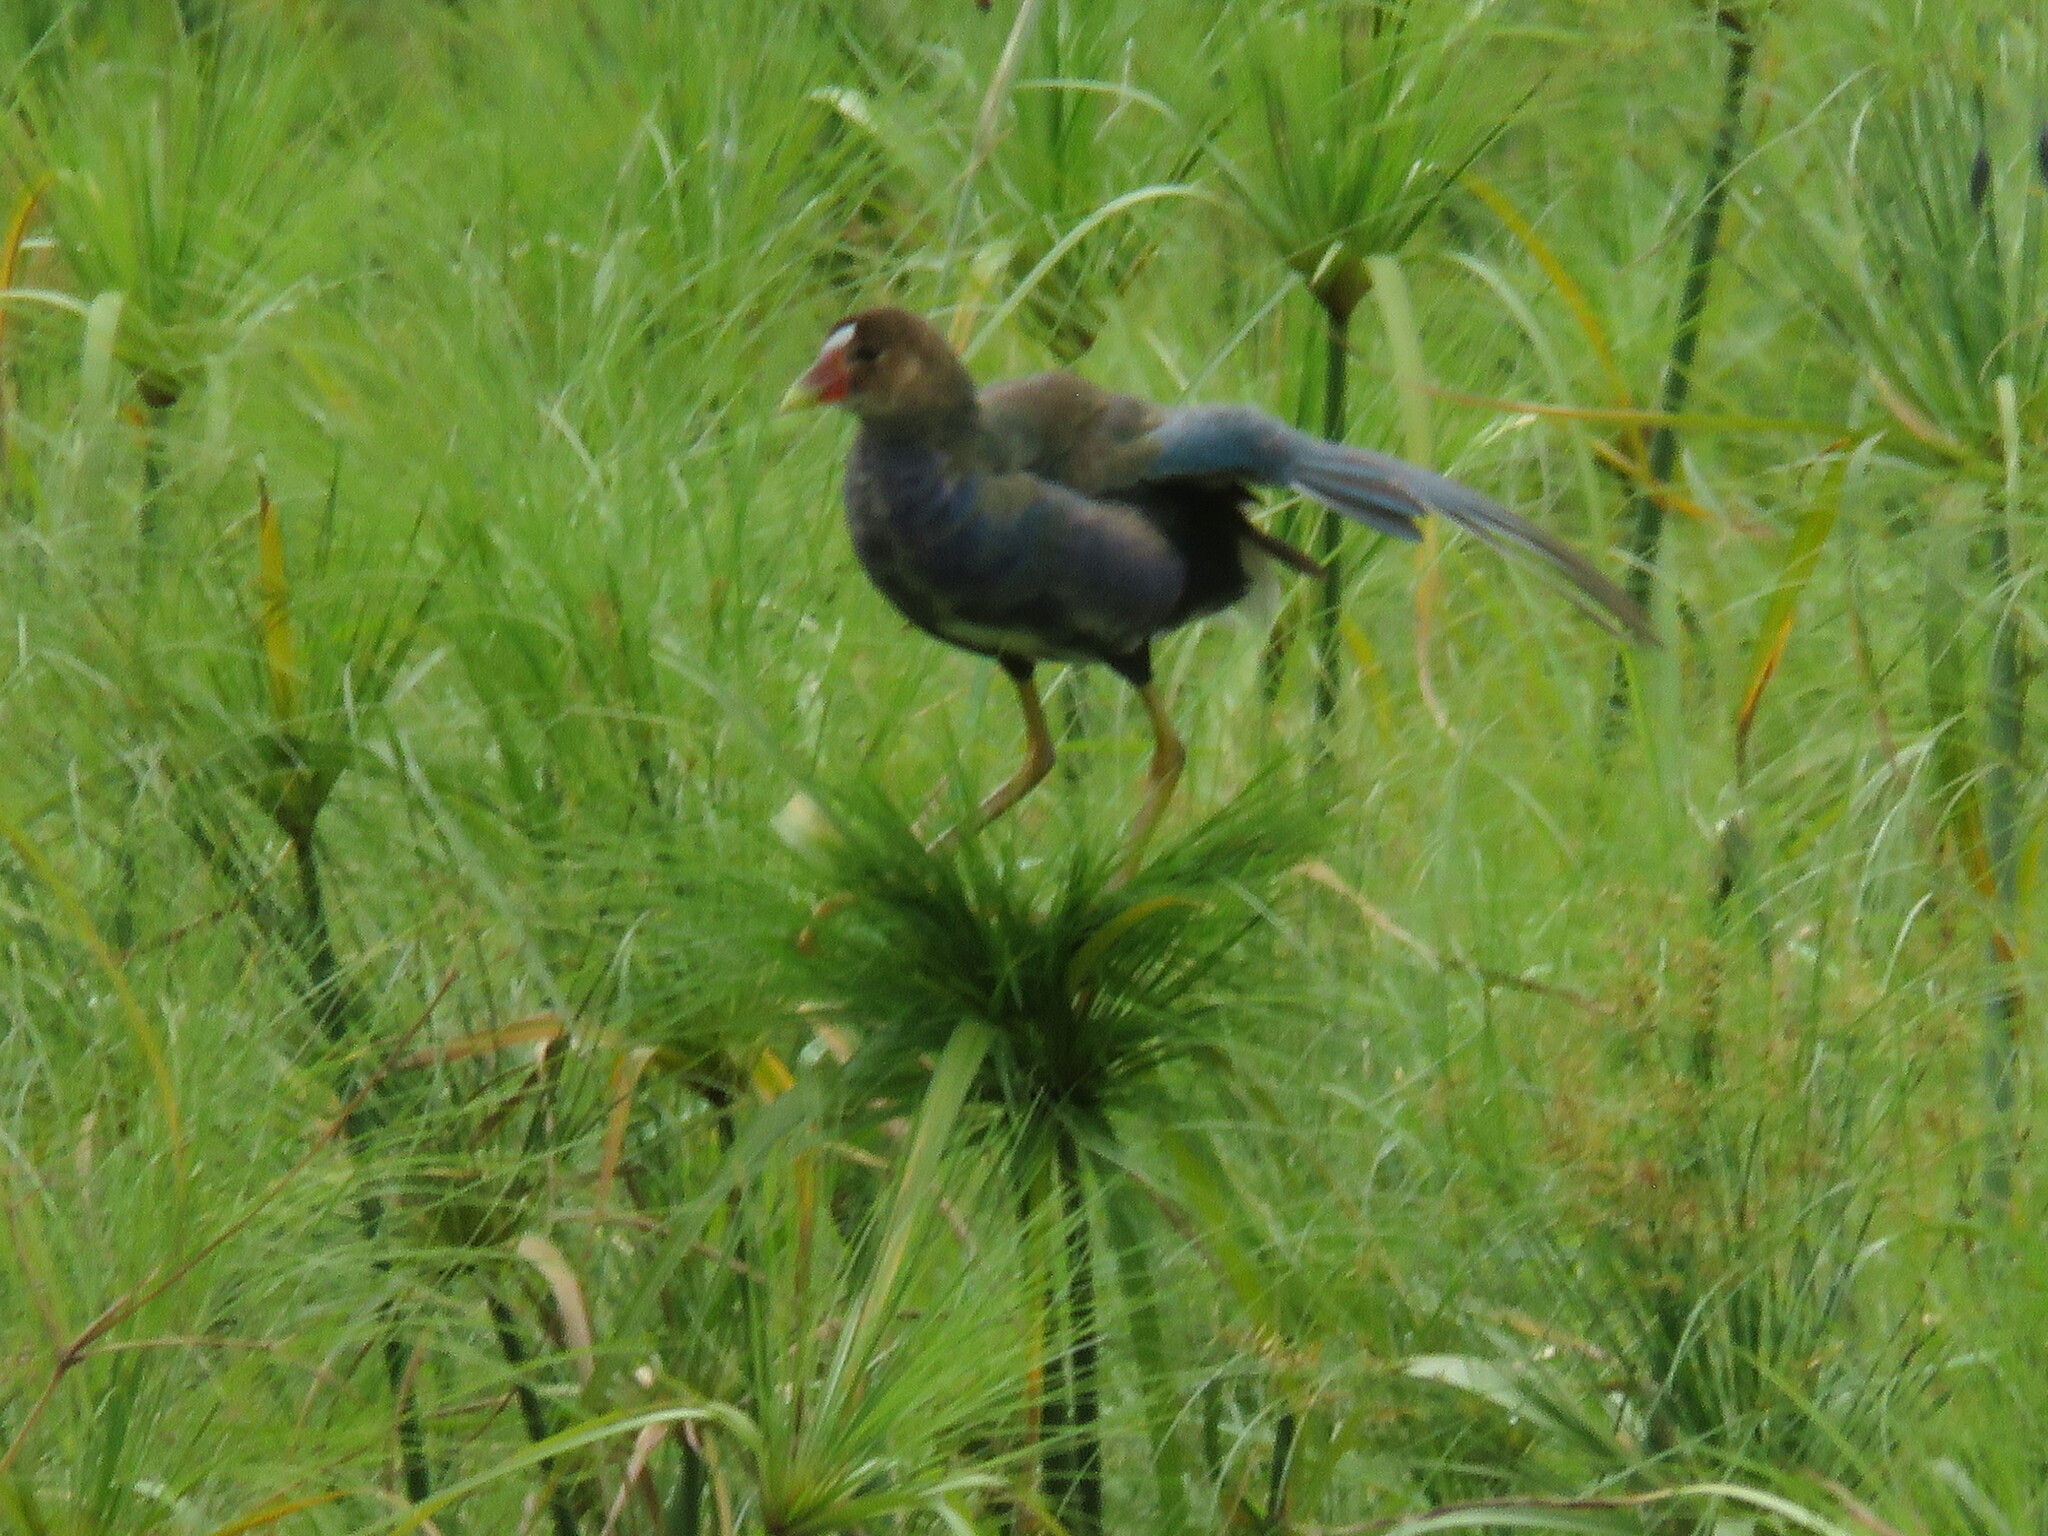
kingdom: Animalia
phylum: Chordata
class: Aves
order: Gruiformes
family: Rallidae
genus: Porphyrio
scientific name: Porphyrio martinica
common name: Purple gallinule
